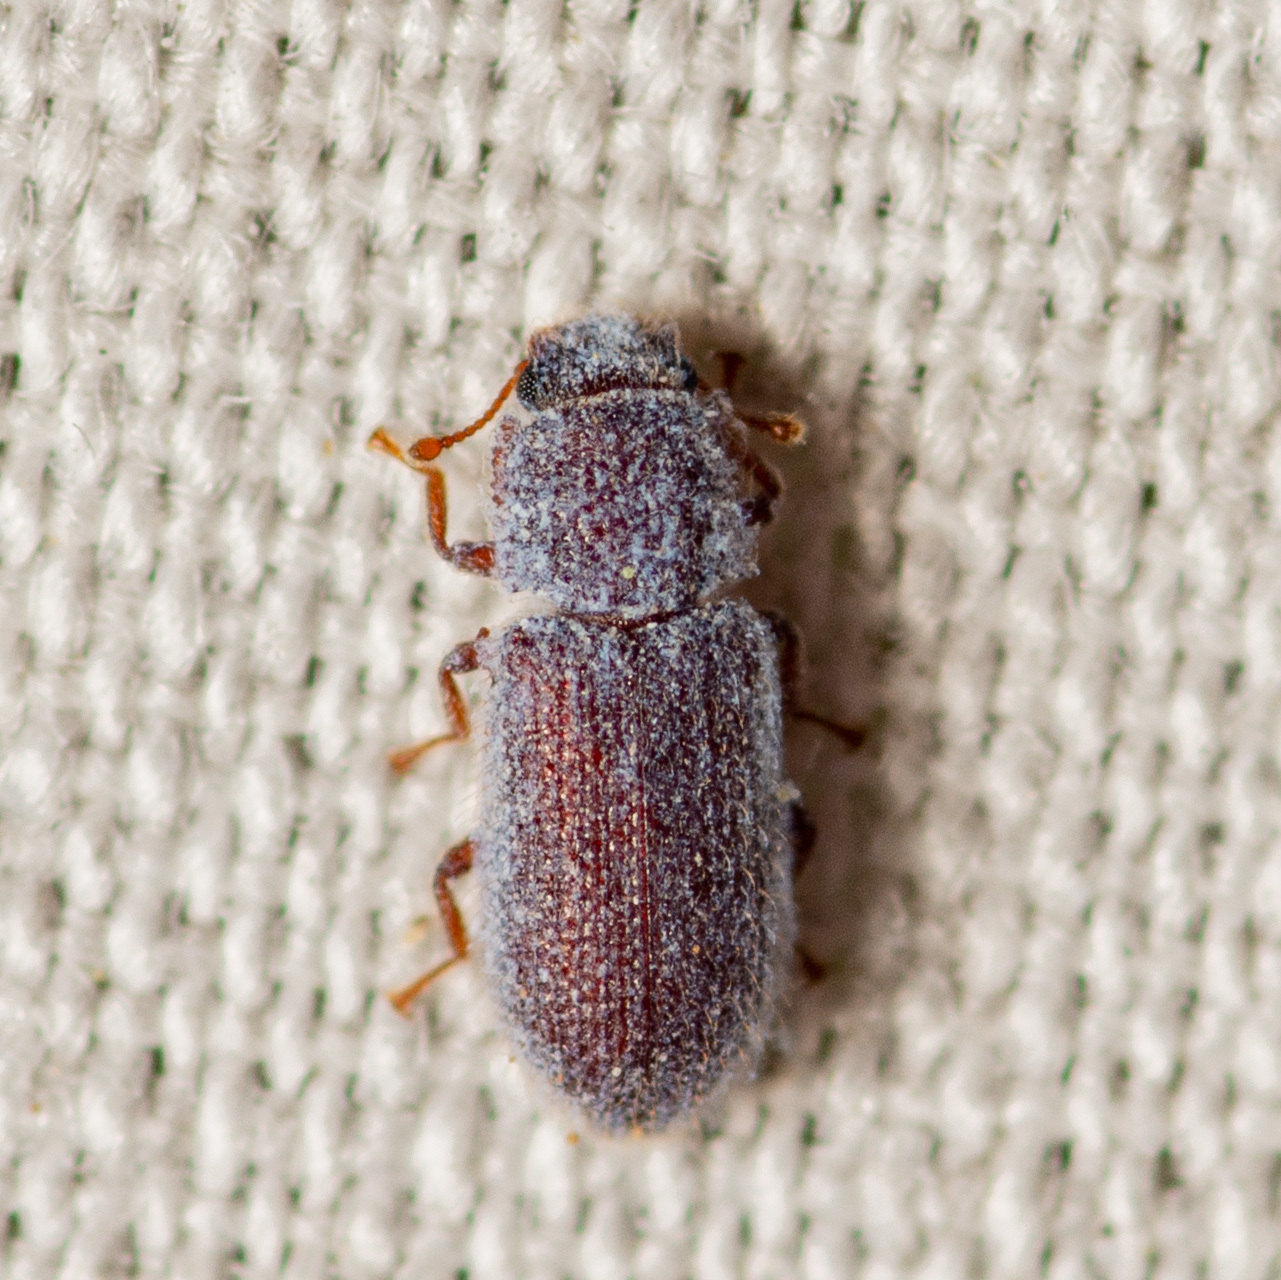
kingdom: Animalia
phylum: Arthropoda
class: Insecta
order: Coleoptera
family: Zopheridae
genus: Endeitoma
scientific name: Endeitoma granulata
